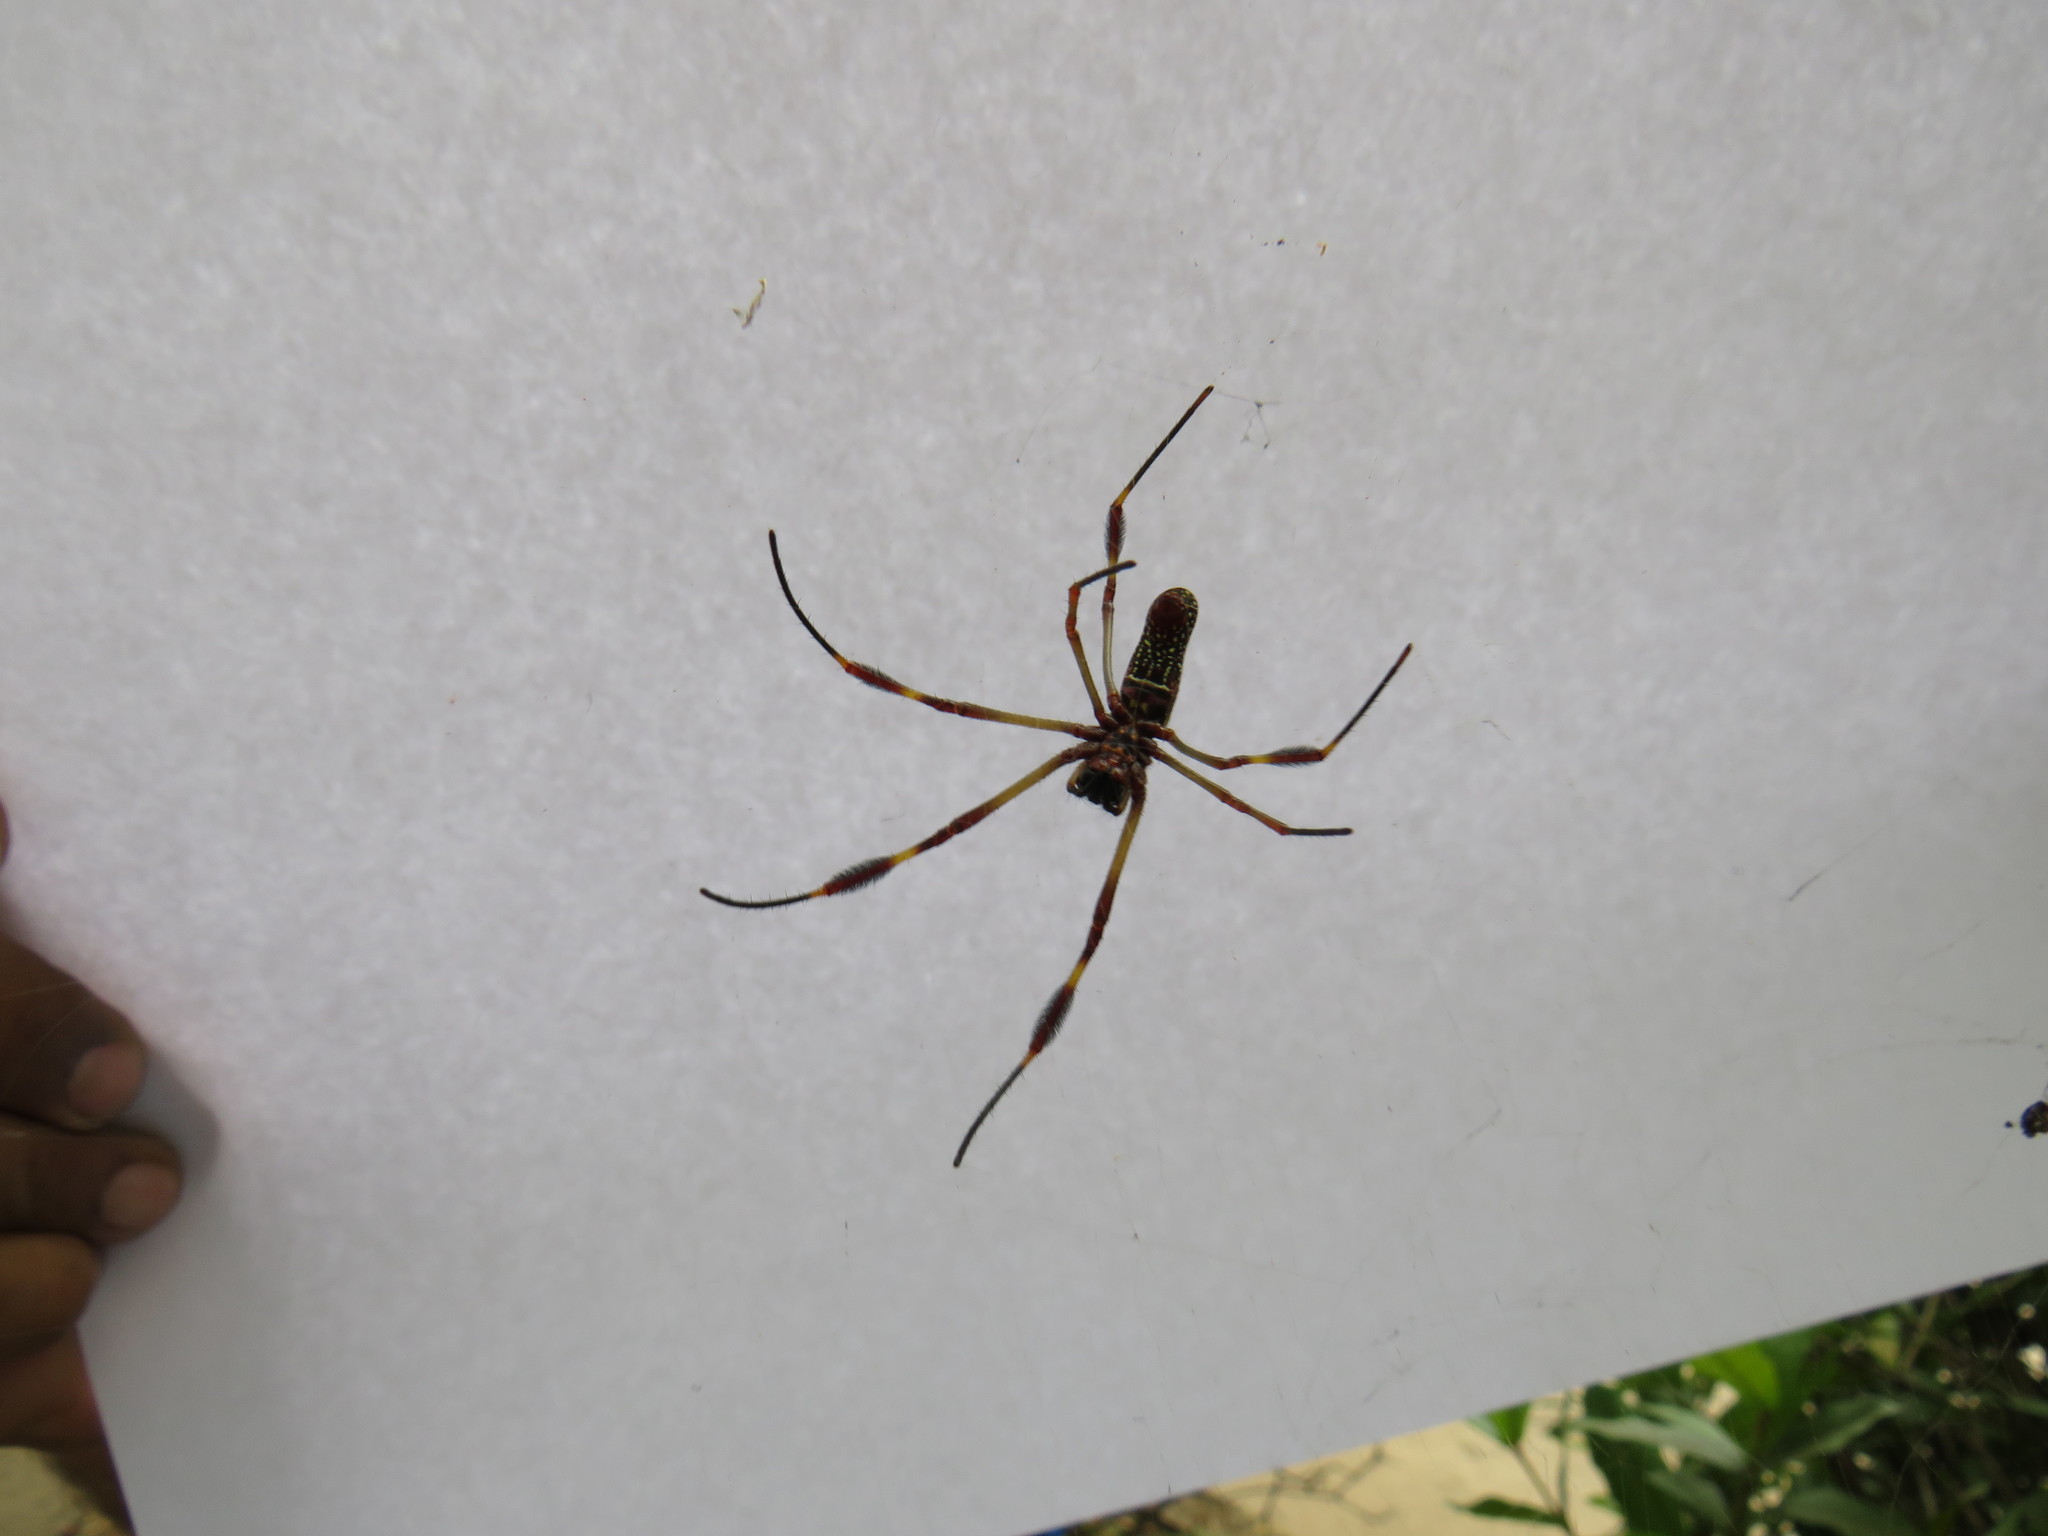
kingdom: Animalia
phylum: Arthropoda
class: Arachnida
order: Araneae
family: Araneidae
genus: Trichonephila
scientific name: Trichonephila clavipes
